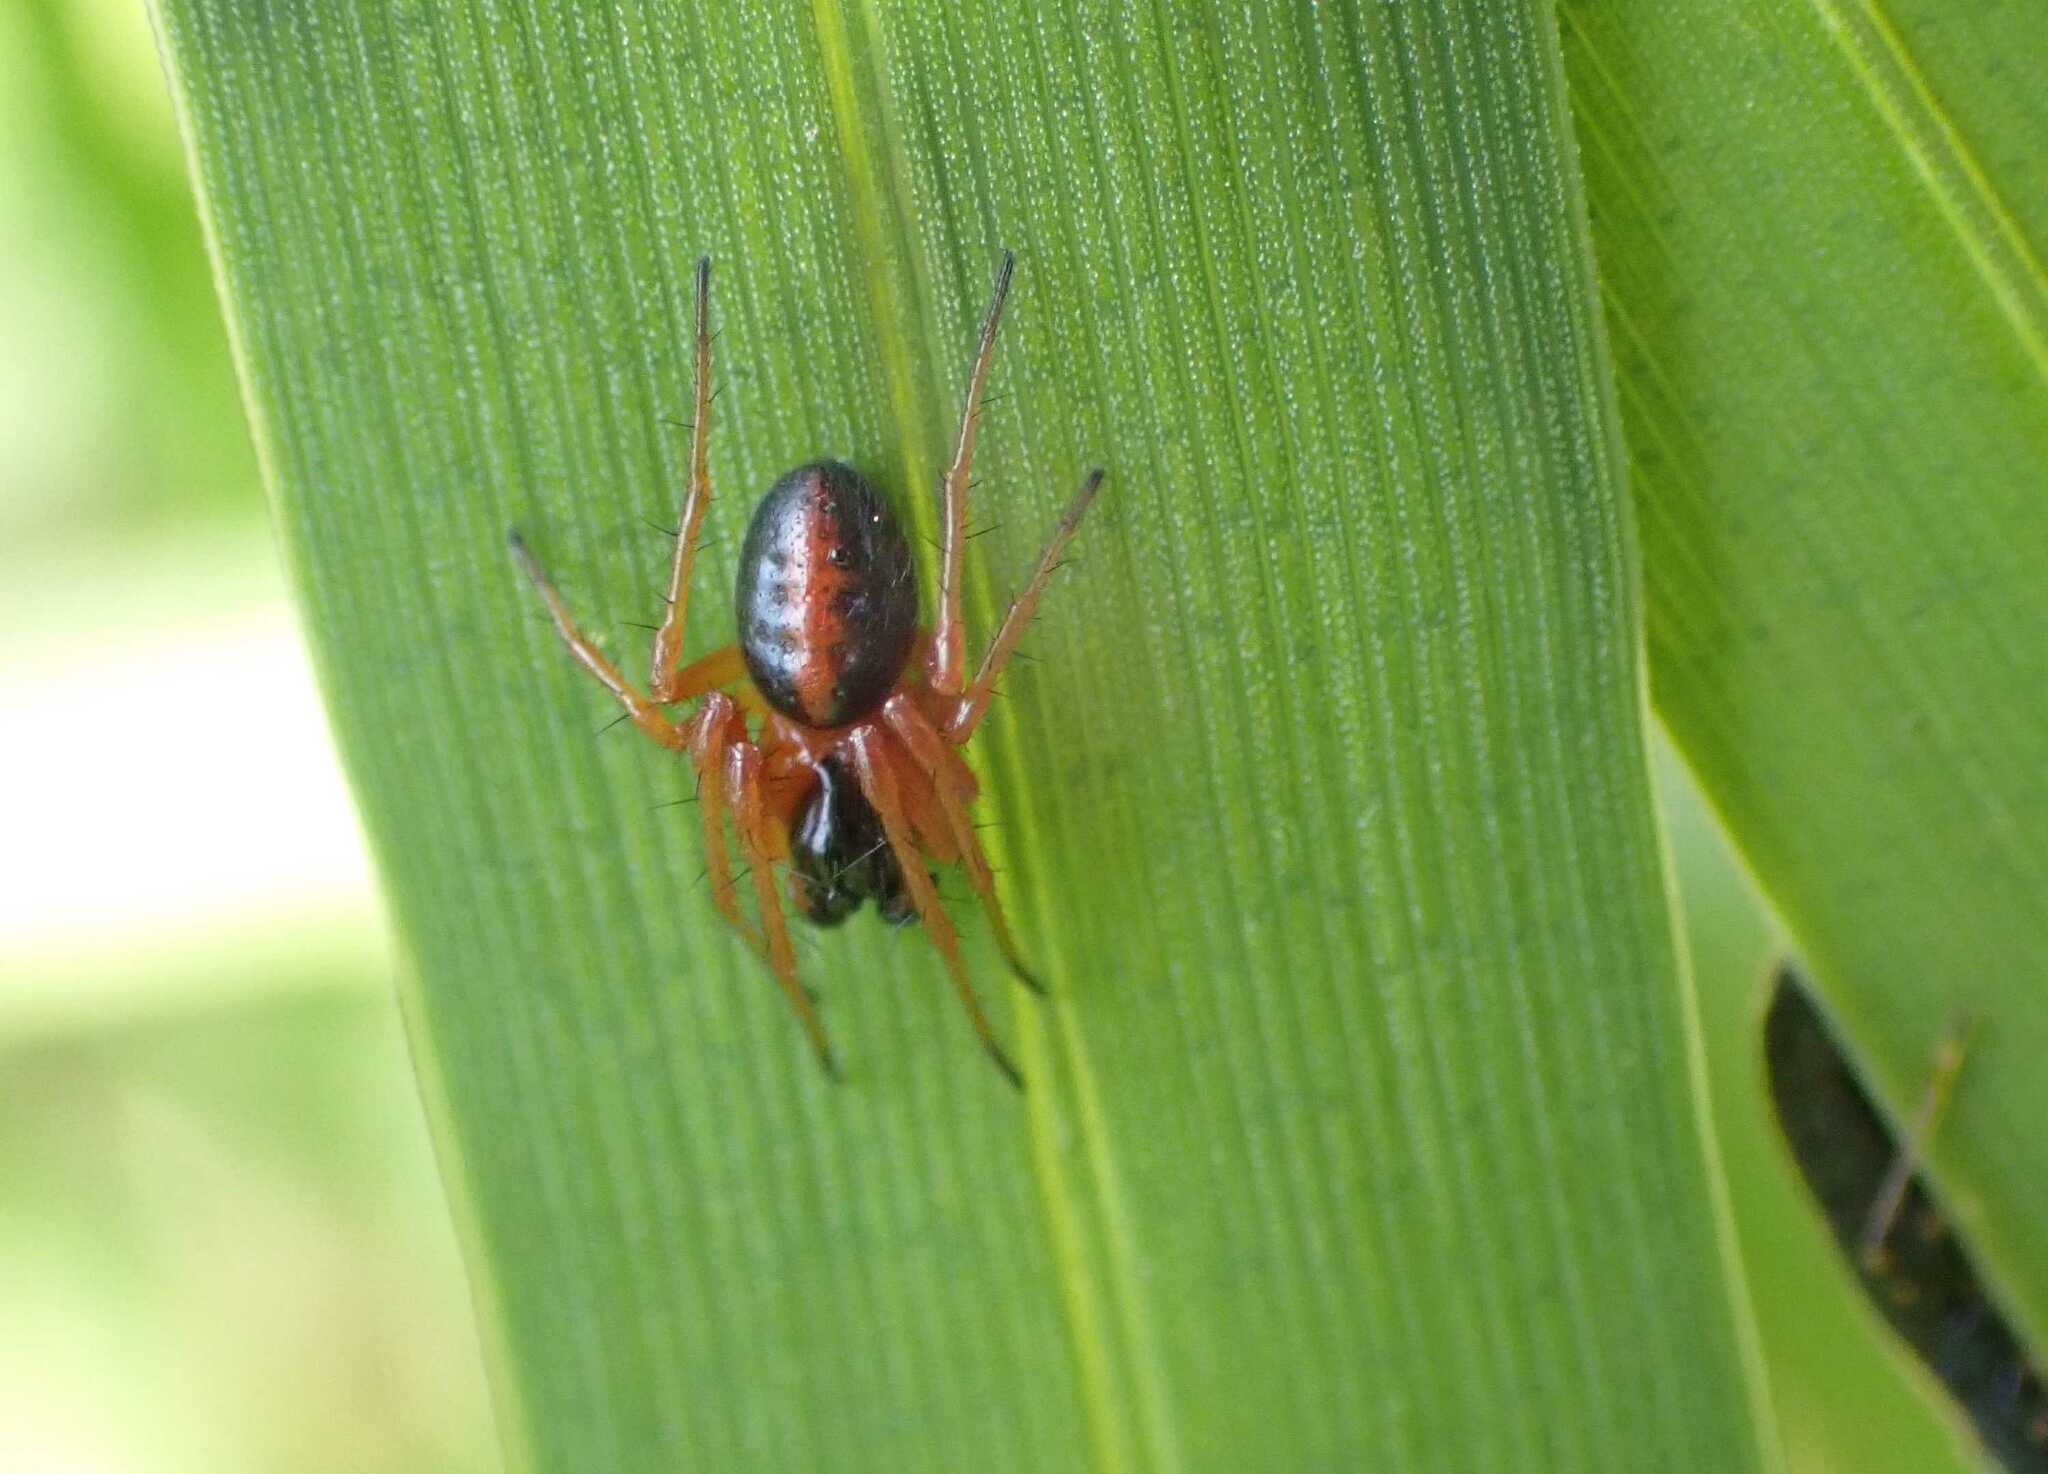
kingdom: Animalia
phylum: Arthropoda
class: Arachnida
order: Araneae
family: Araneidae
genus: Hypsosinga
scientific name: Hypsosinga heri
